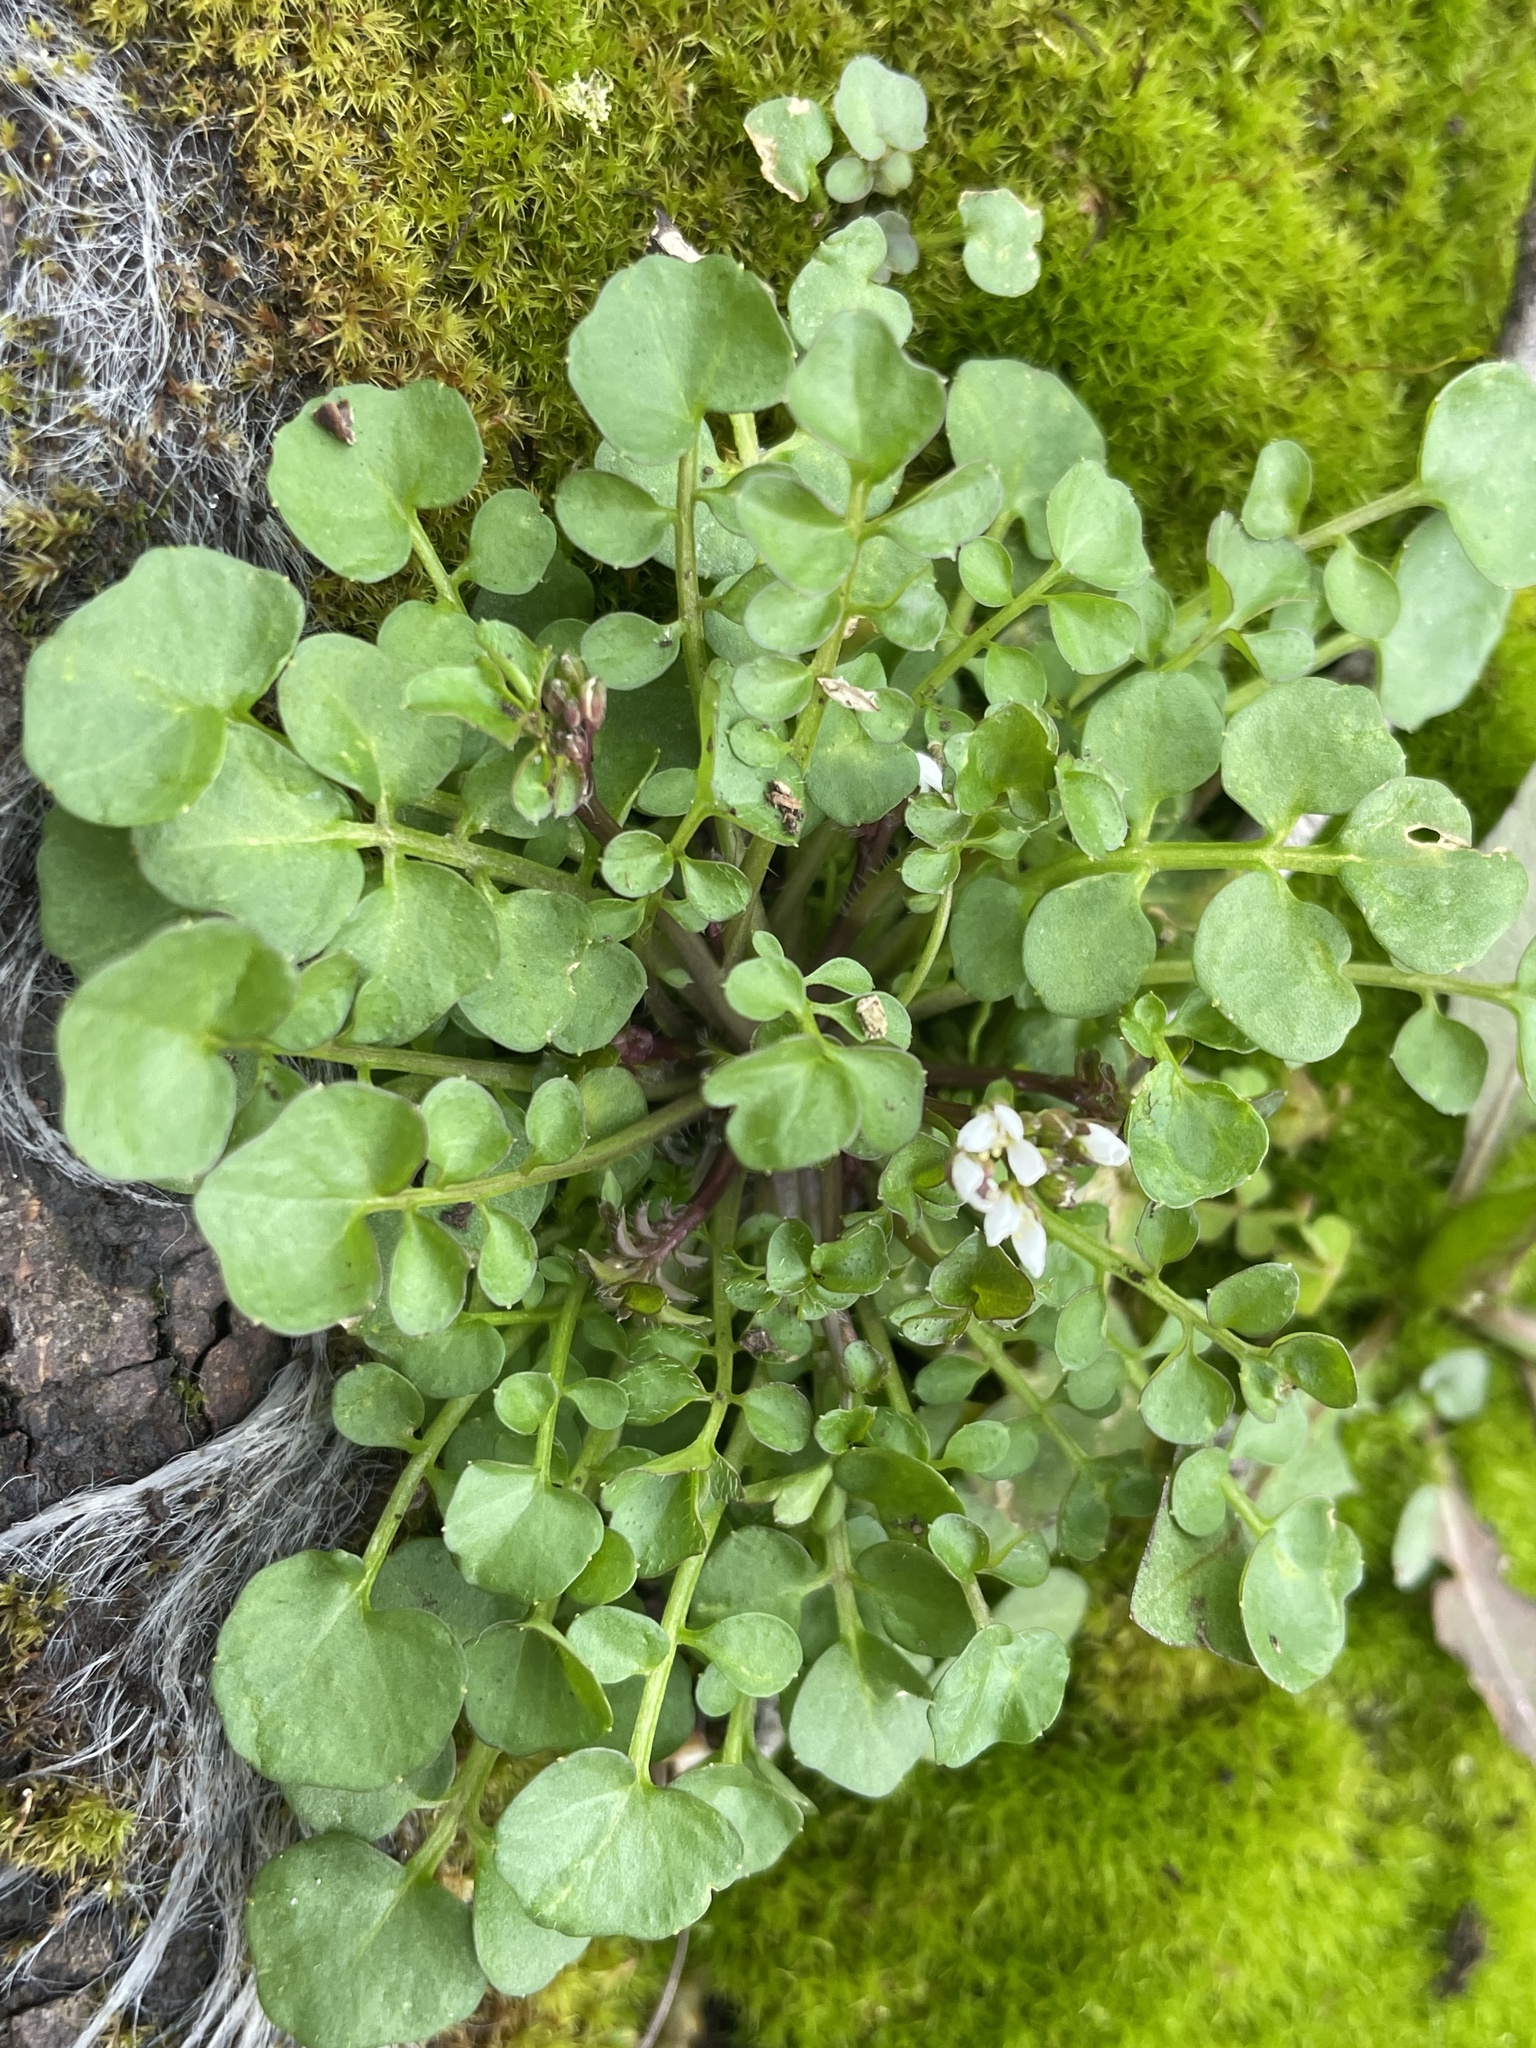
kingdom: Plantae
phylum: Tracheophyta
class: Magnoliopsida
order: Brassicales
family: Brassicaceae
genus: Cardamine
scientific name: Cardamine hirsuta
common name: Hairy bittercress
